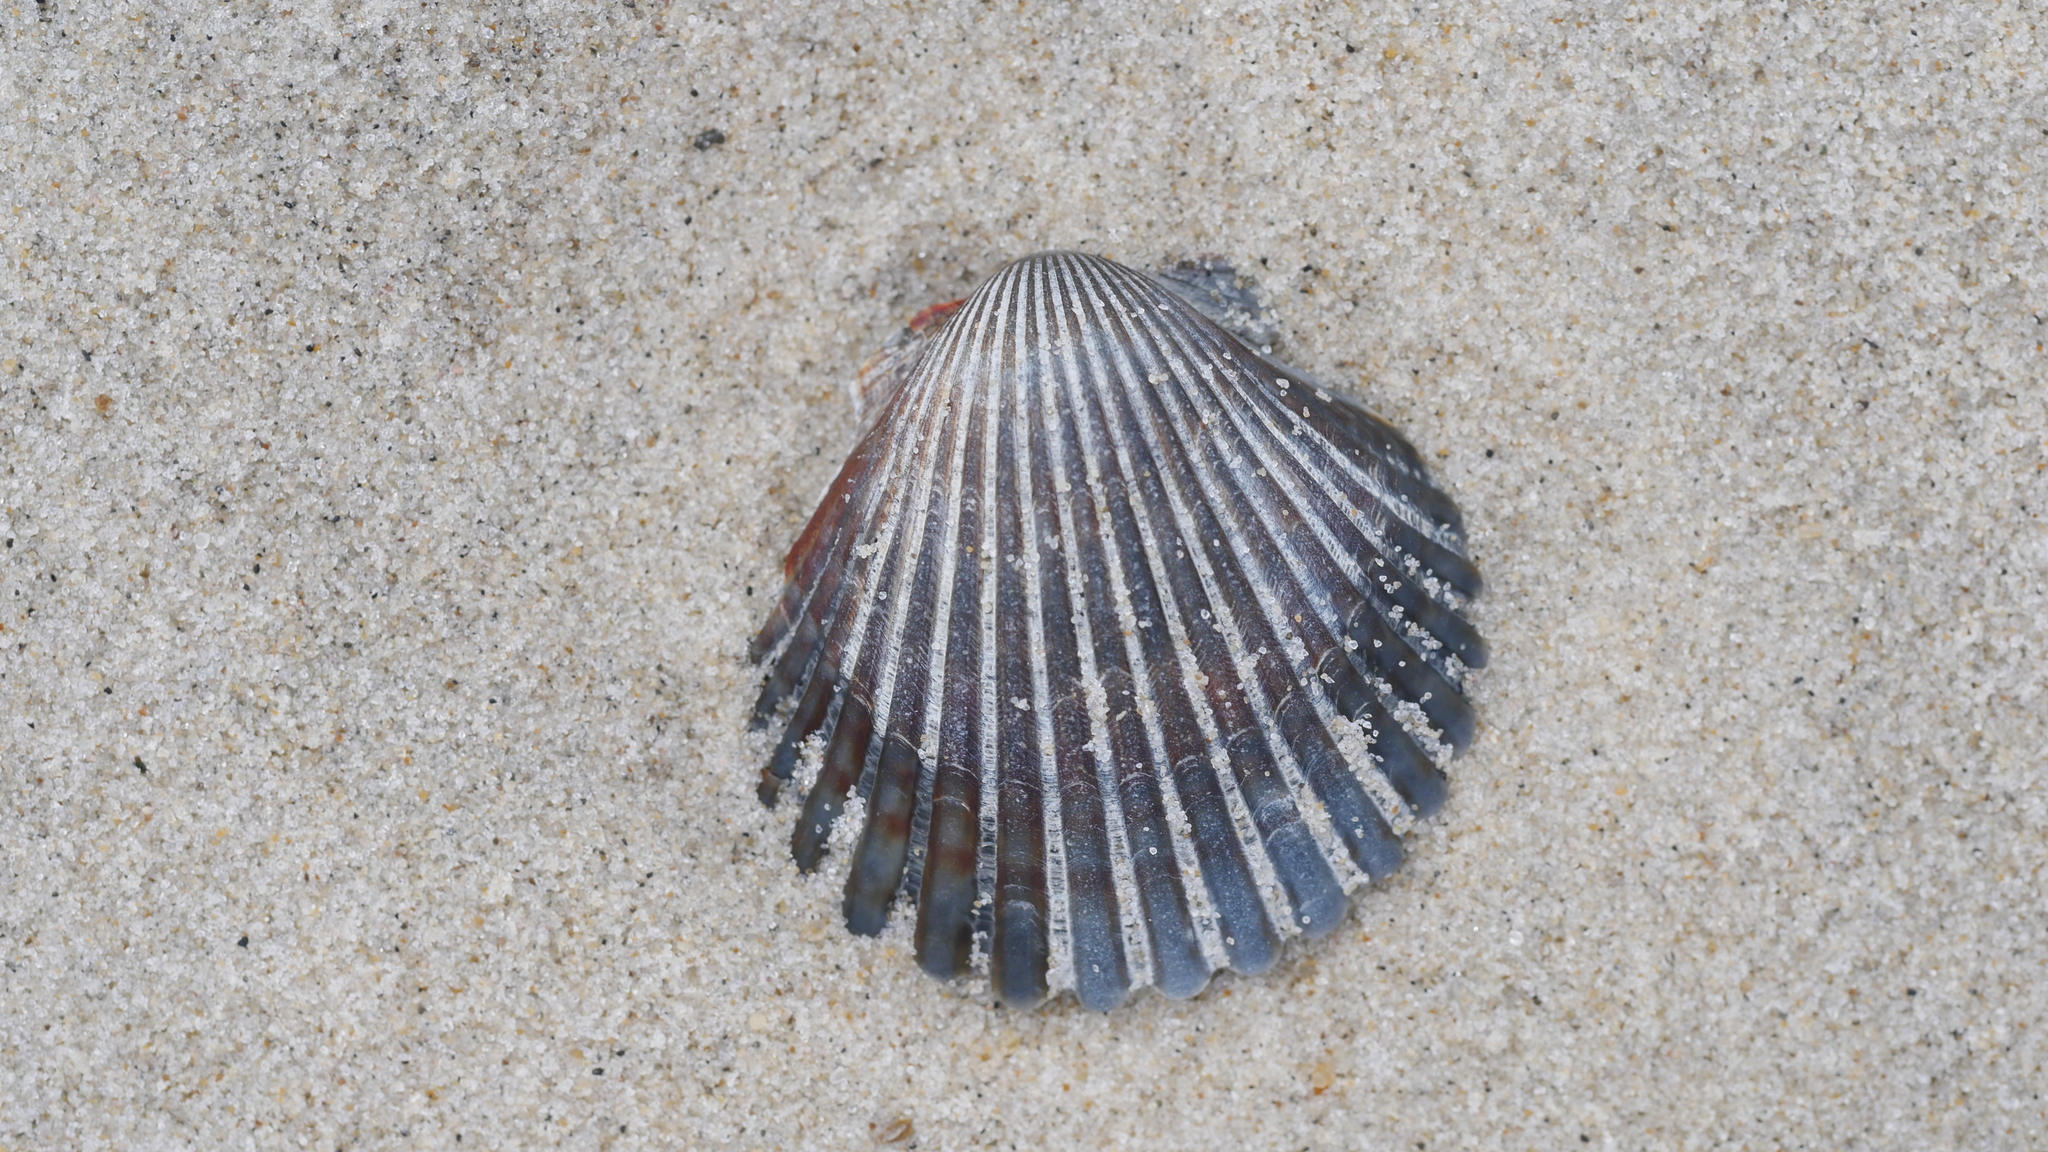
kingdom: Animalia
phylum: Mollusca
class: Bivalvia
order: Pectinida
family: Pectinidae
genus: Argopecten
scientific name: Argopecten irradians
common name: Atlantic bay scallop
